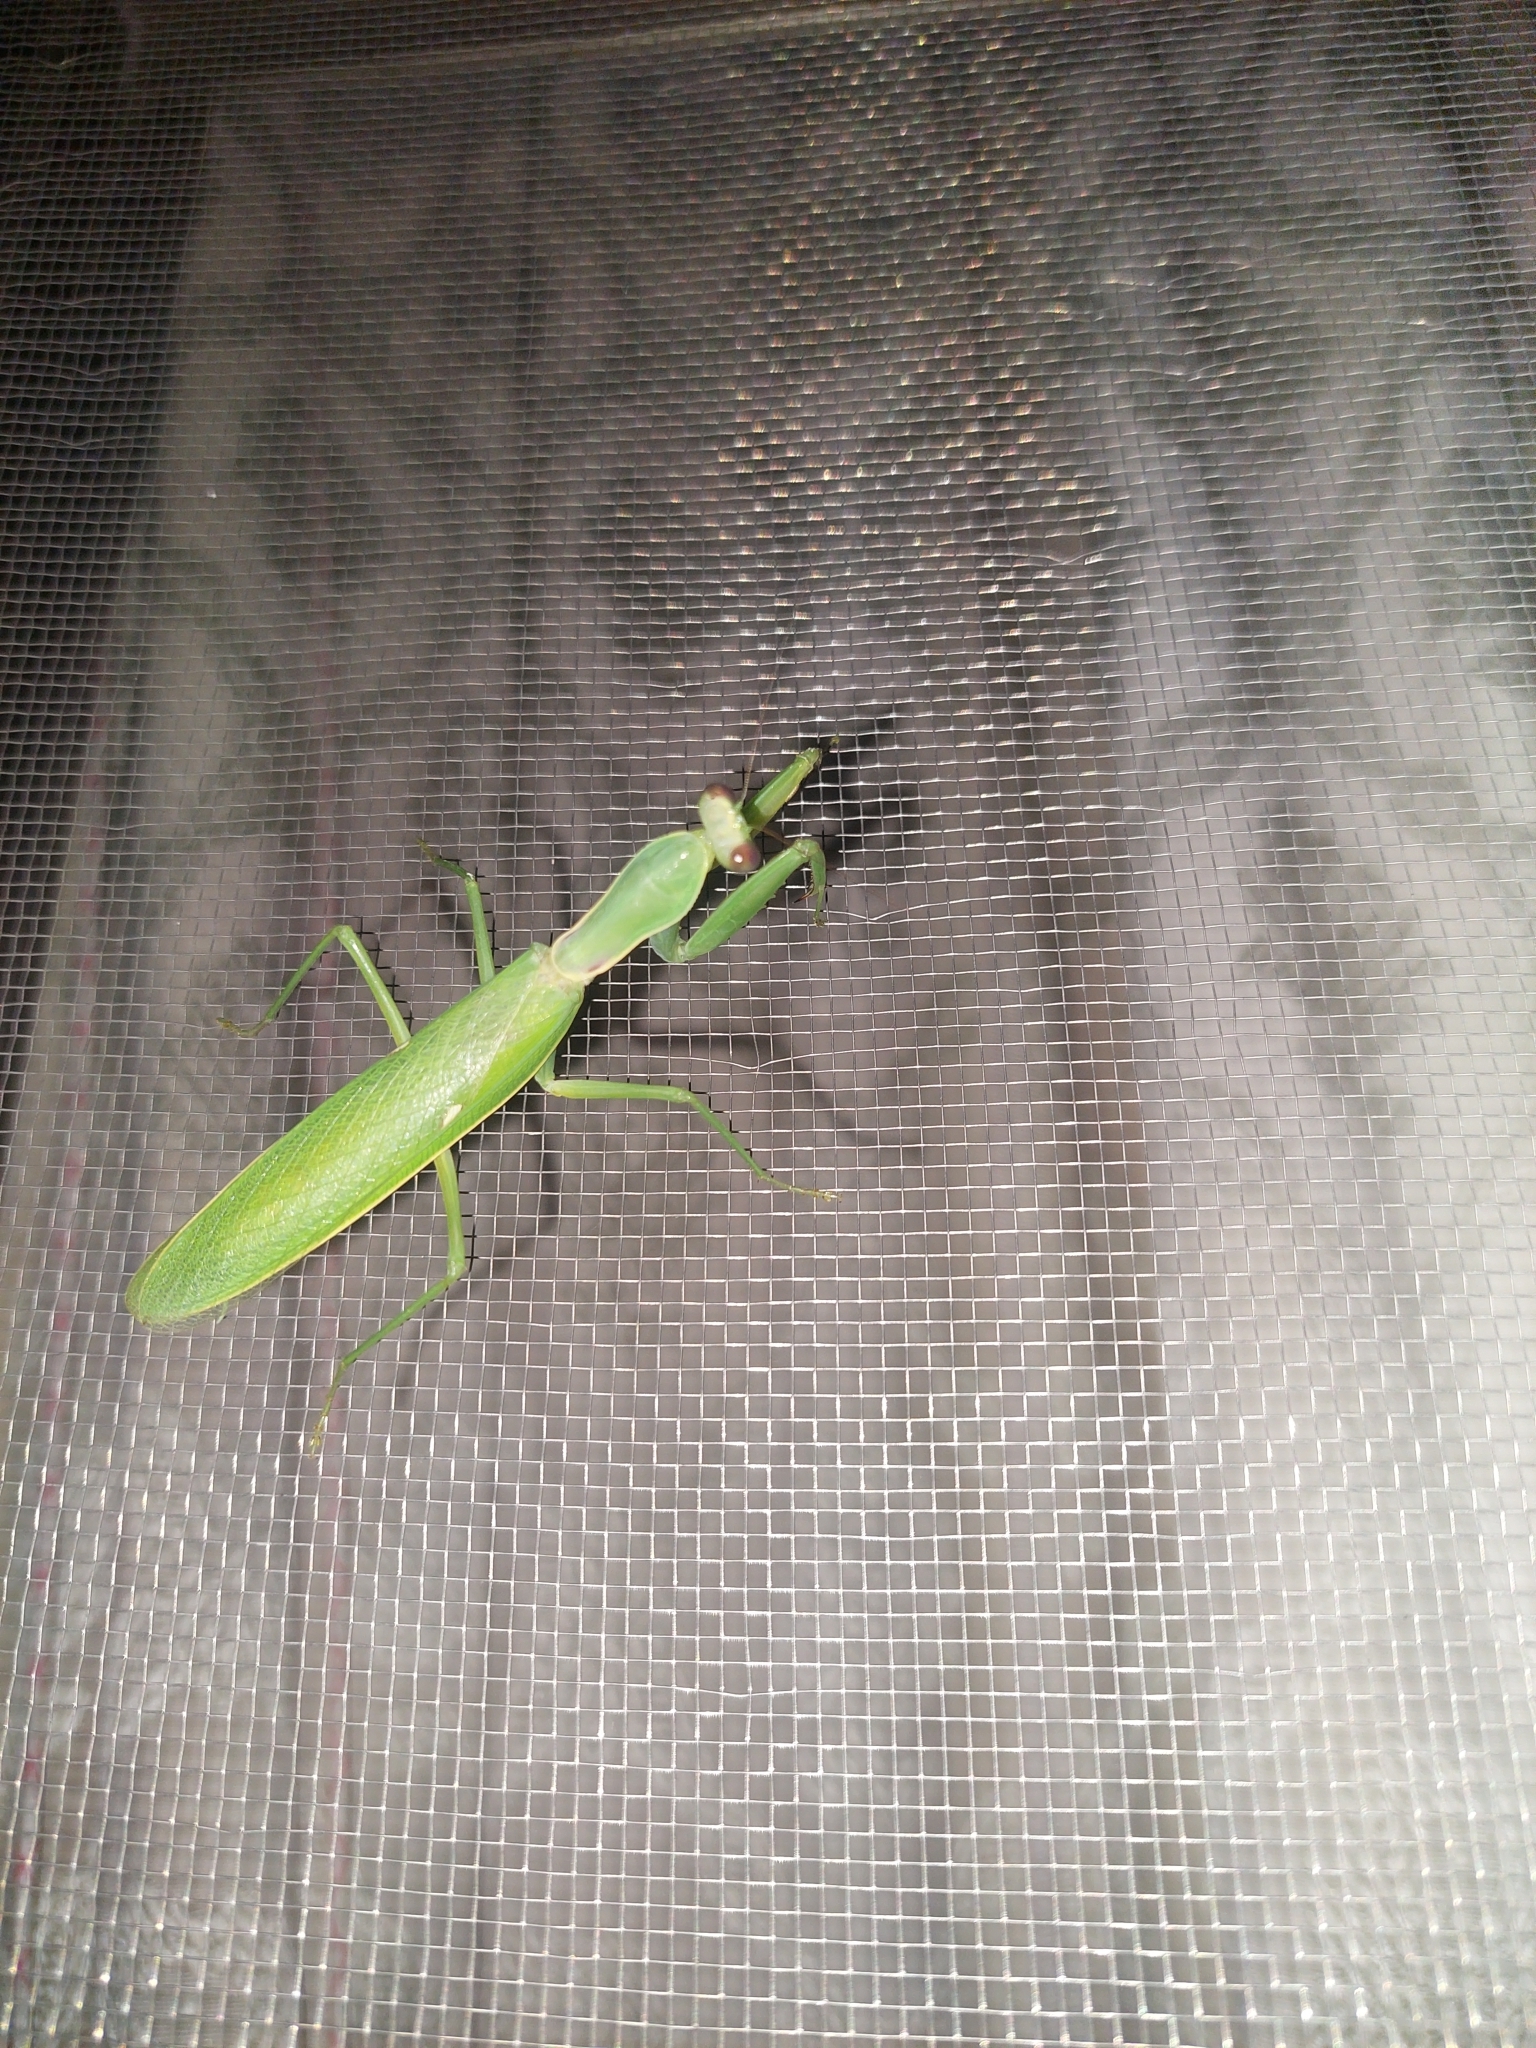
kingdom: Animalia
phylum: Arthropoda
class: Insecta
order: Mantodea
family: Mantidae
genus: Hierodula
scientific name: Hierodula patellifera
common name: Asian mantis
